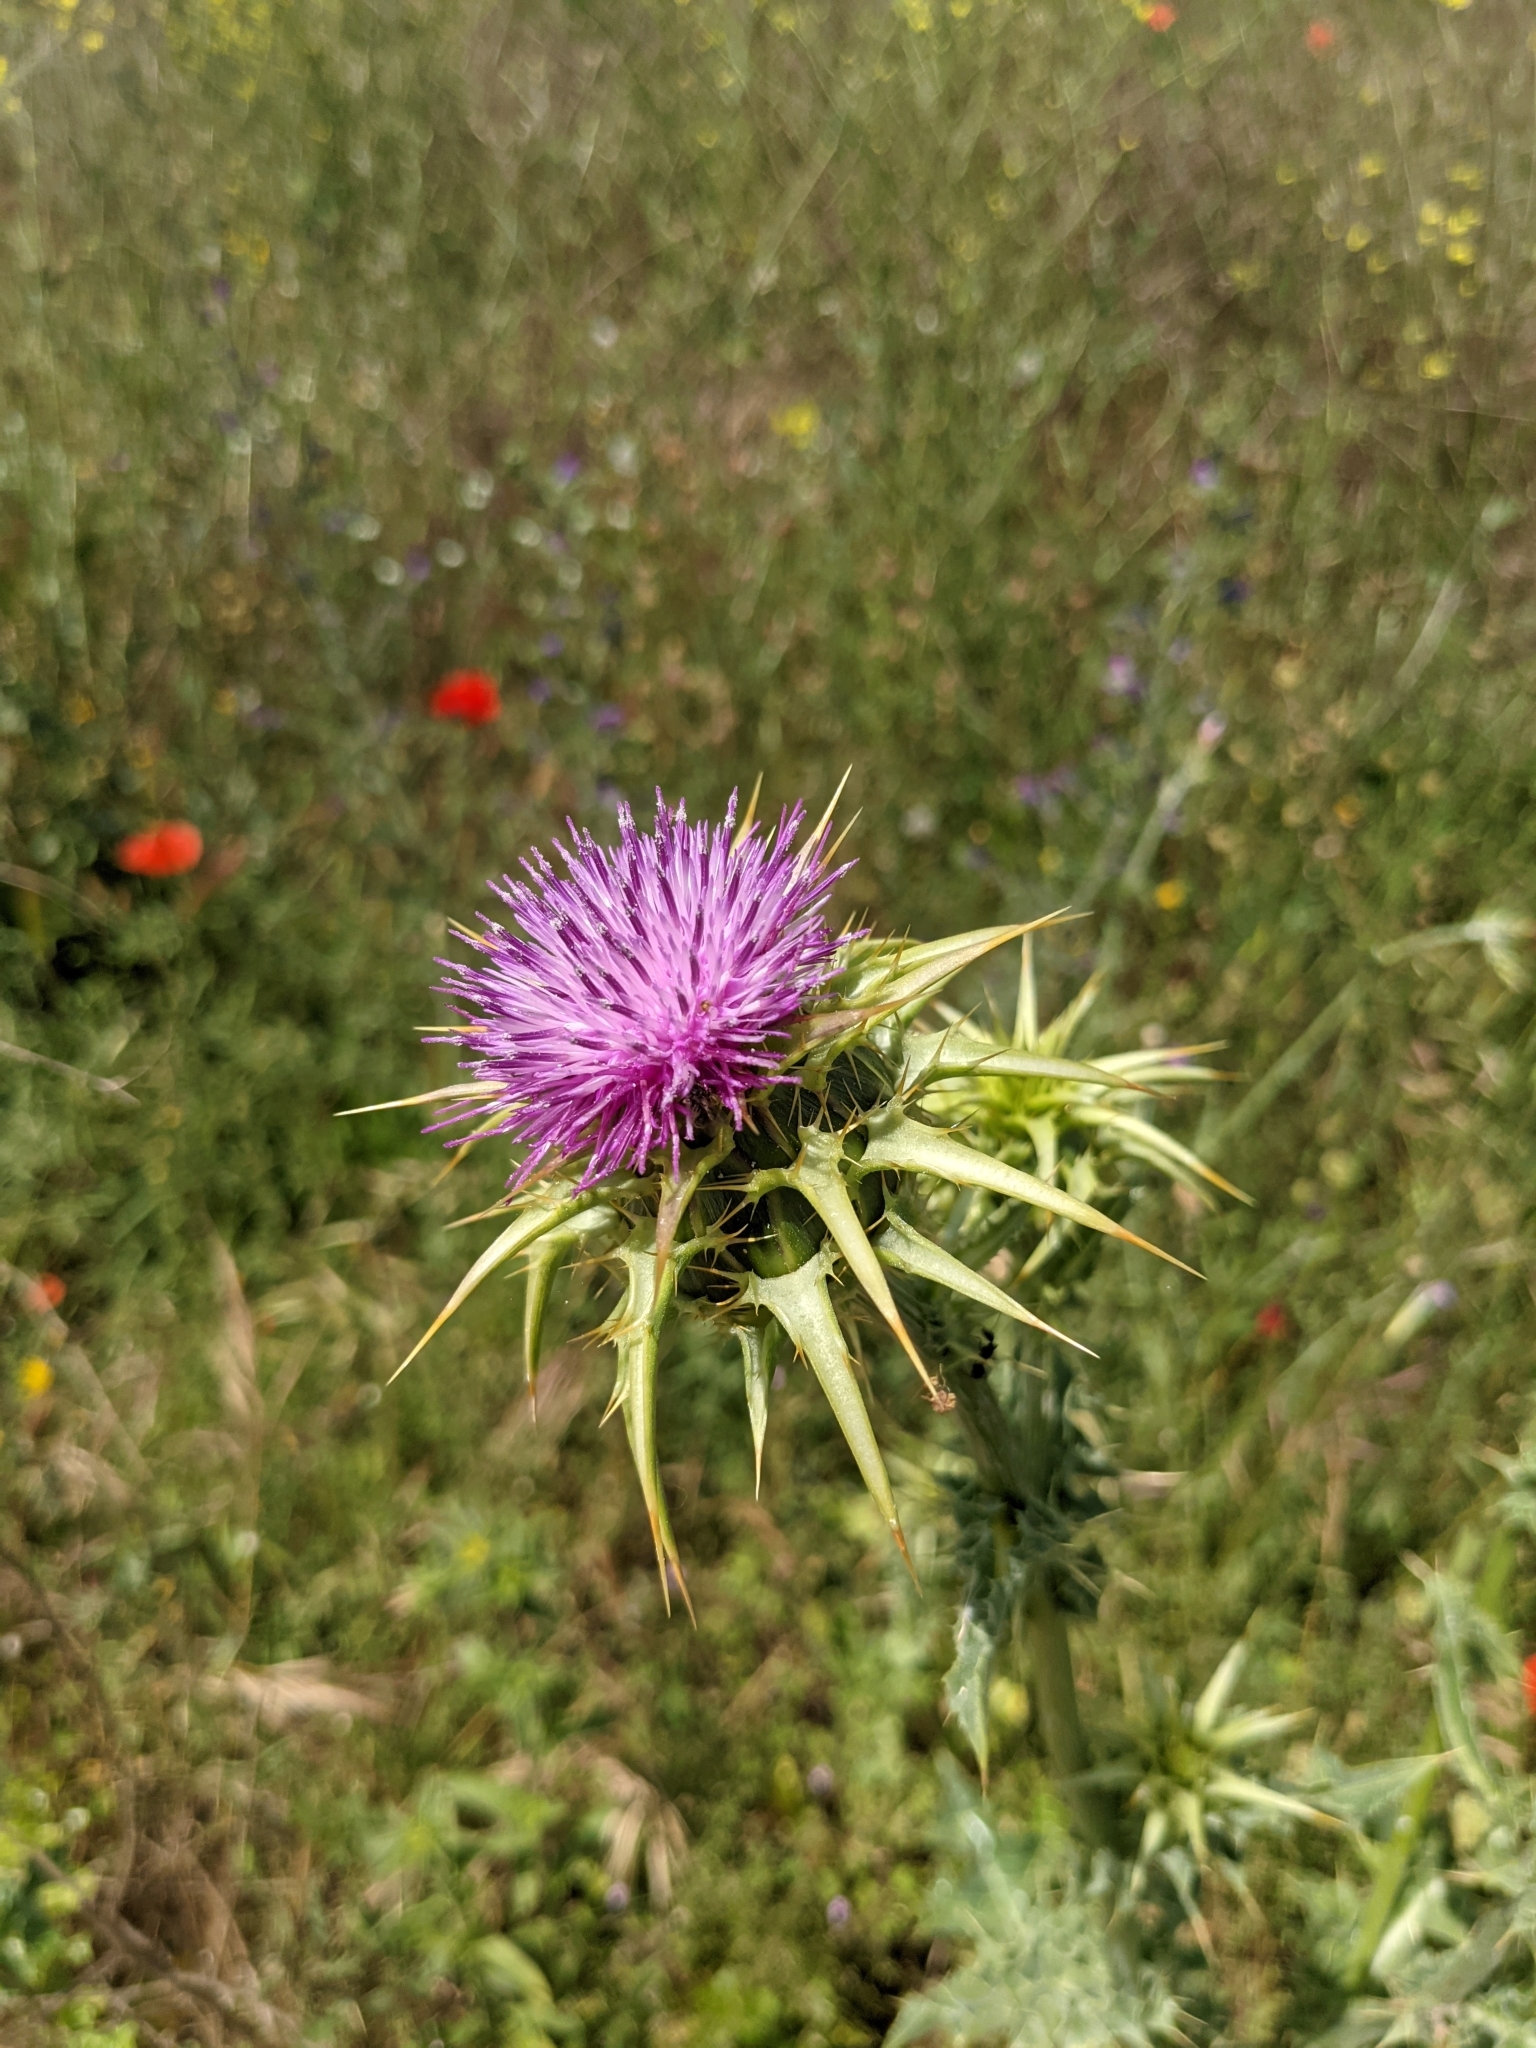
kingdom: Plantae
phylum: Tracheophyta
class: Magnoliopsida
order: Asterales
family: Asteraceae
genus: Silybum
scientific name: Silybum marianum
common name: Milk thistle
